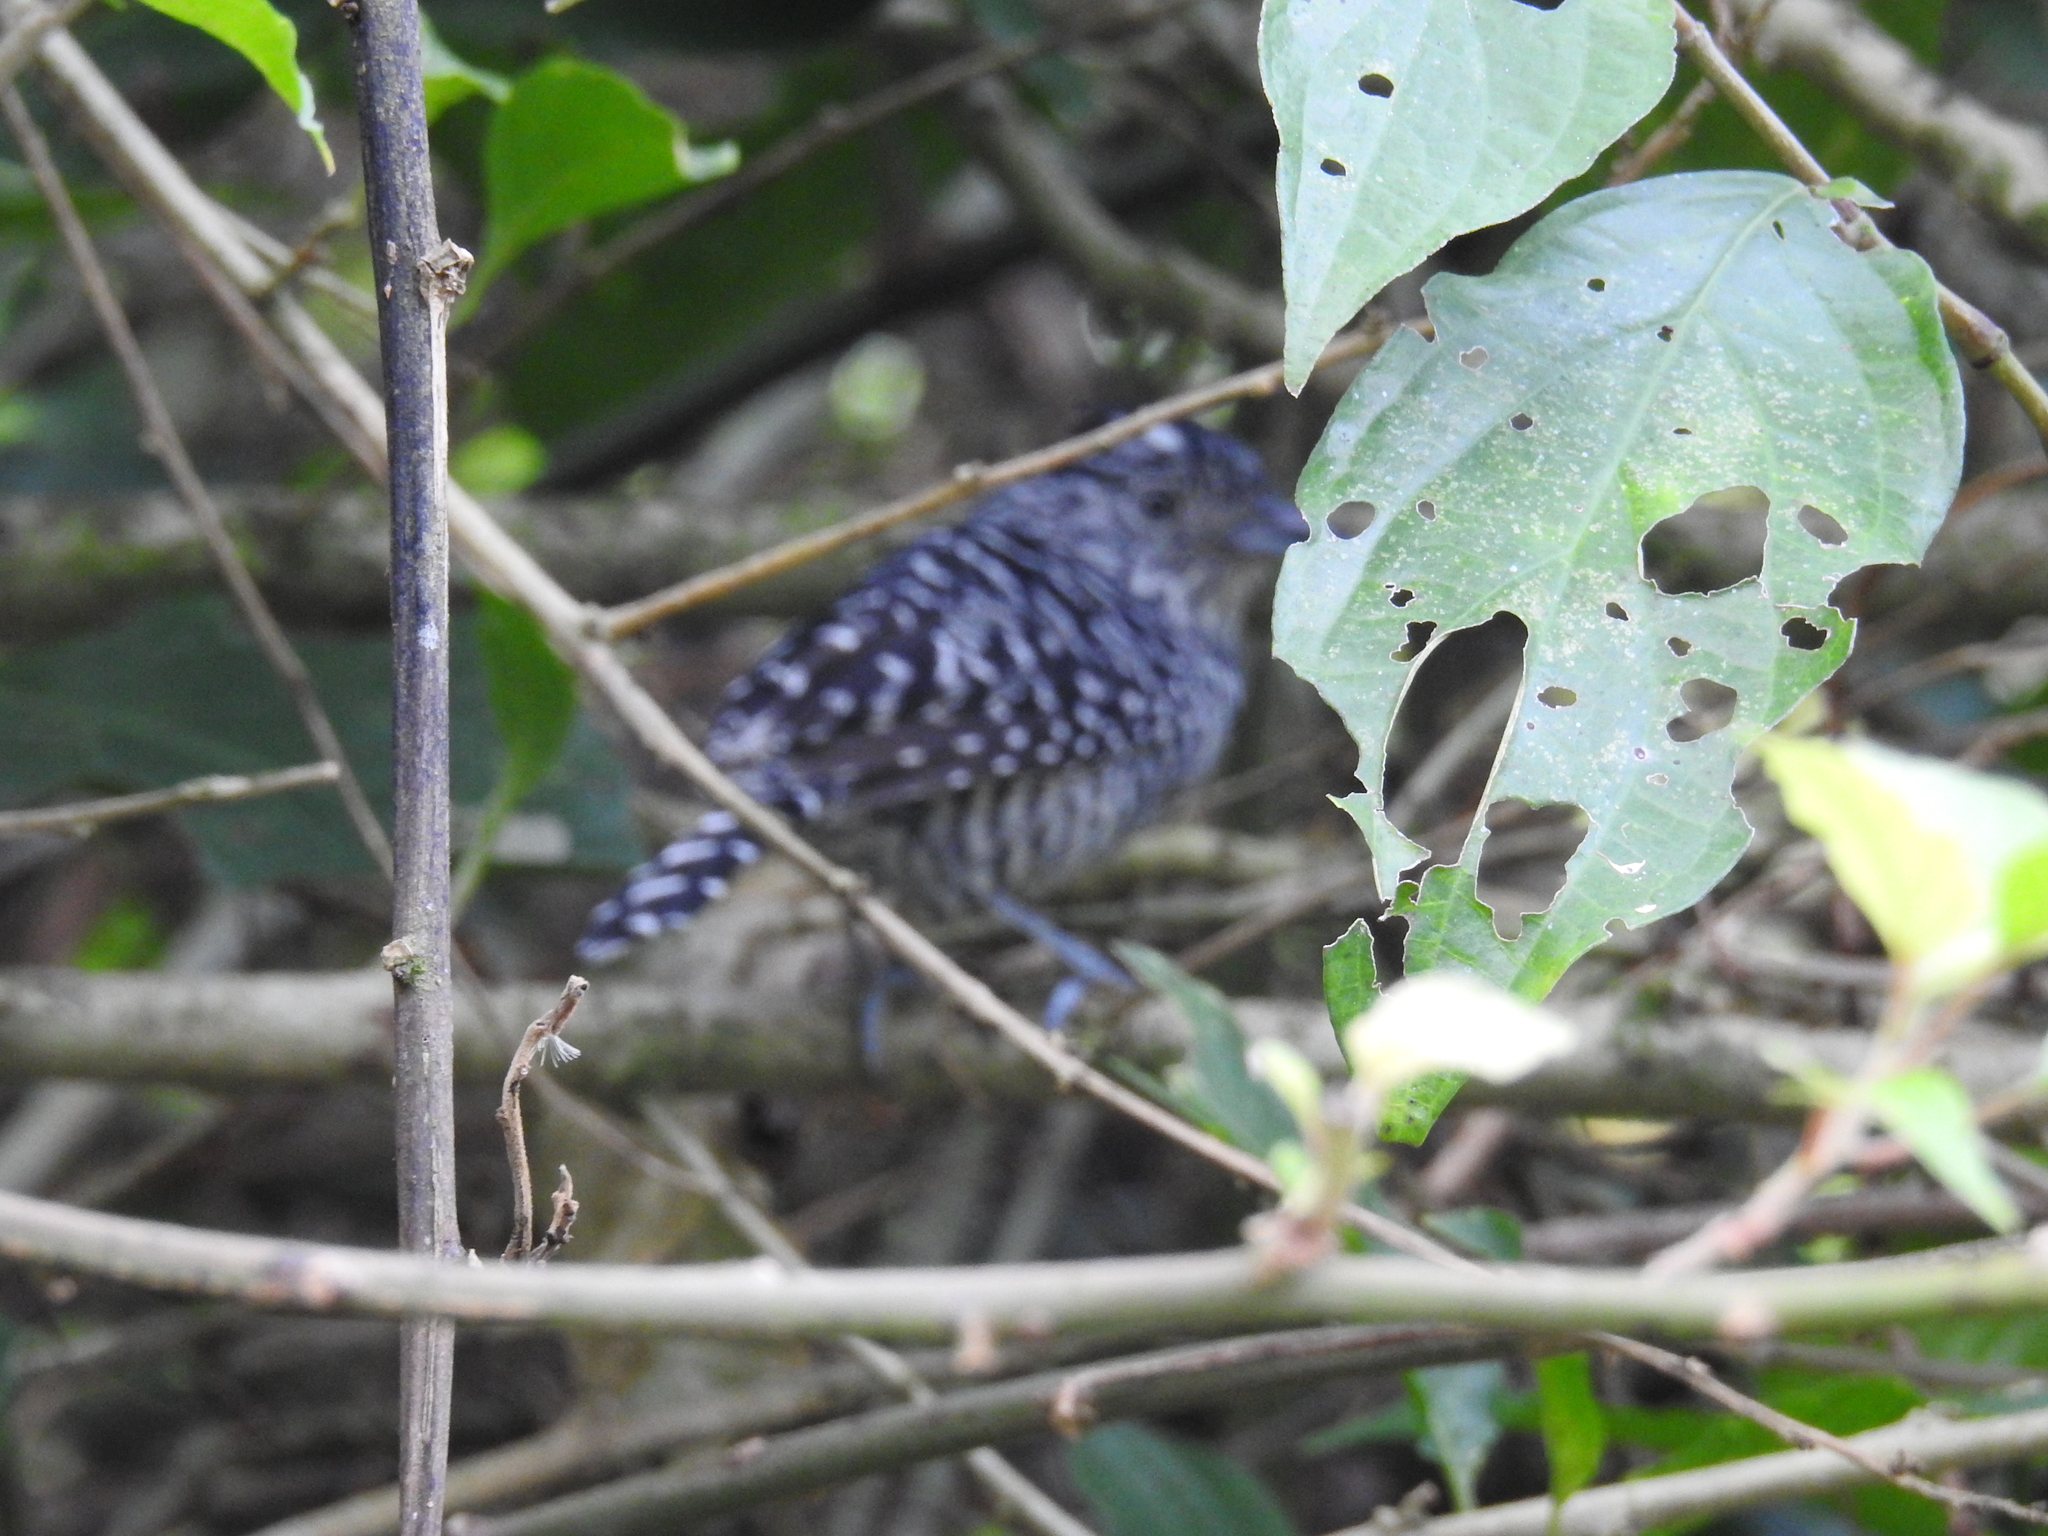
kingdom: Animalia
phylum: Chordata
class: Aves
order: Passeriformes
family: Thamnophilidae
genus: Thamnophilus
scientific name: Thamnophilus doliatus
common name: Barred antshrike
